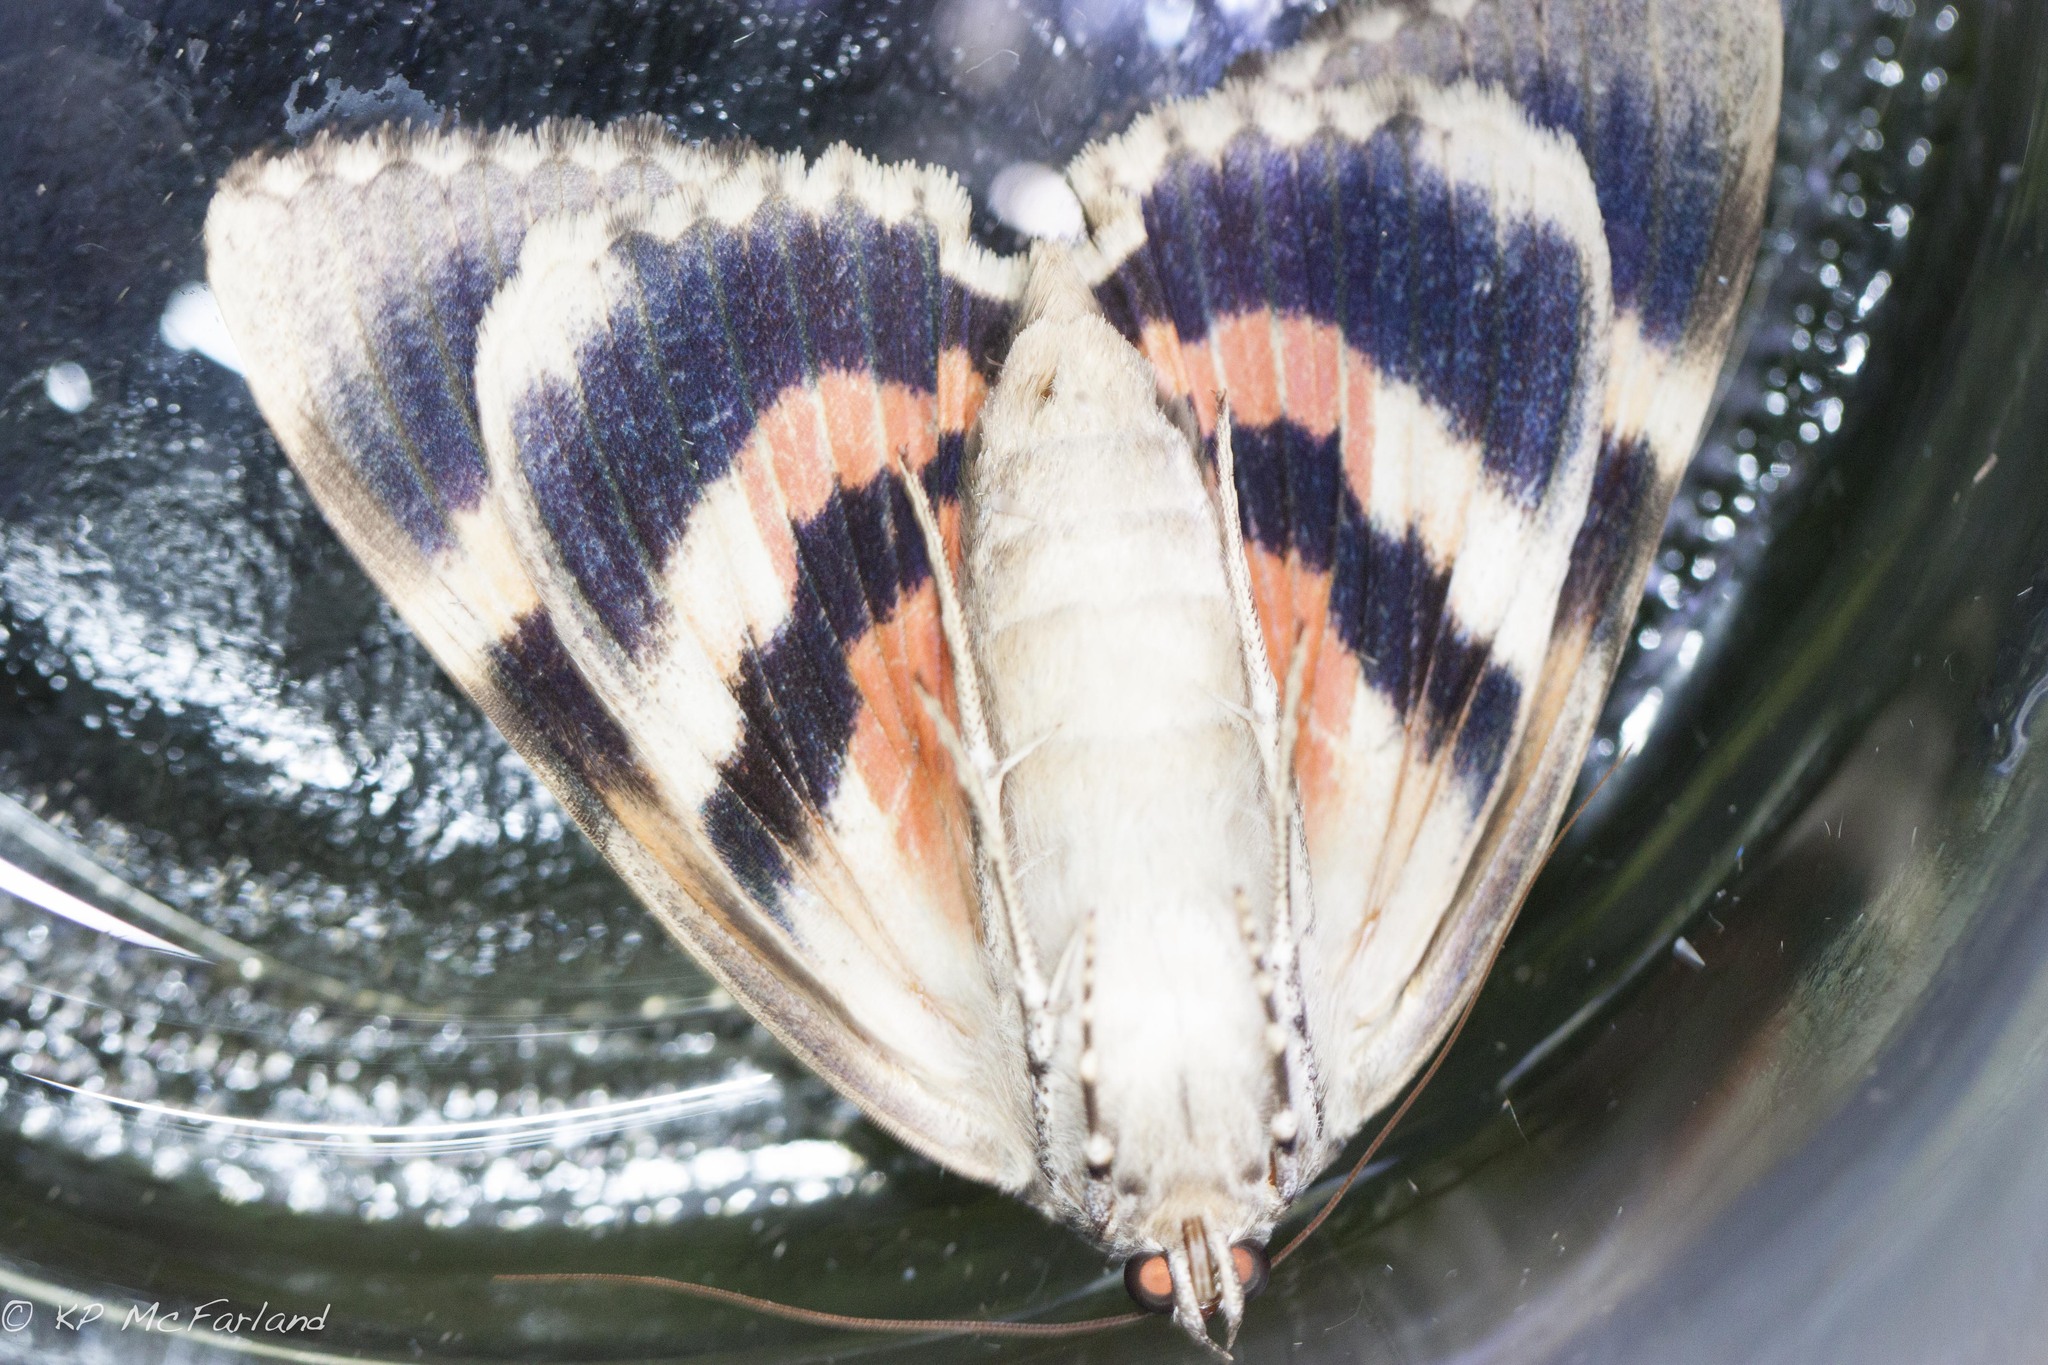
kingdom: Animalia
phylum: Arthropoda
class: Insecta
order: Lepidoptera
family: Erebidae
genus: Catocala
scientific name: Catocala ilia
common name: Ilia underwing
